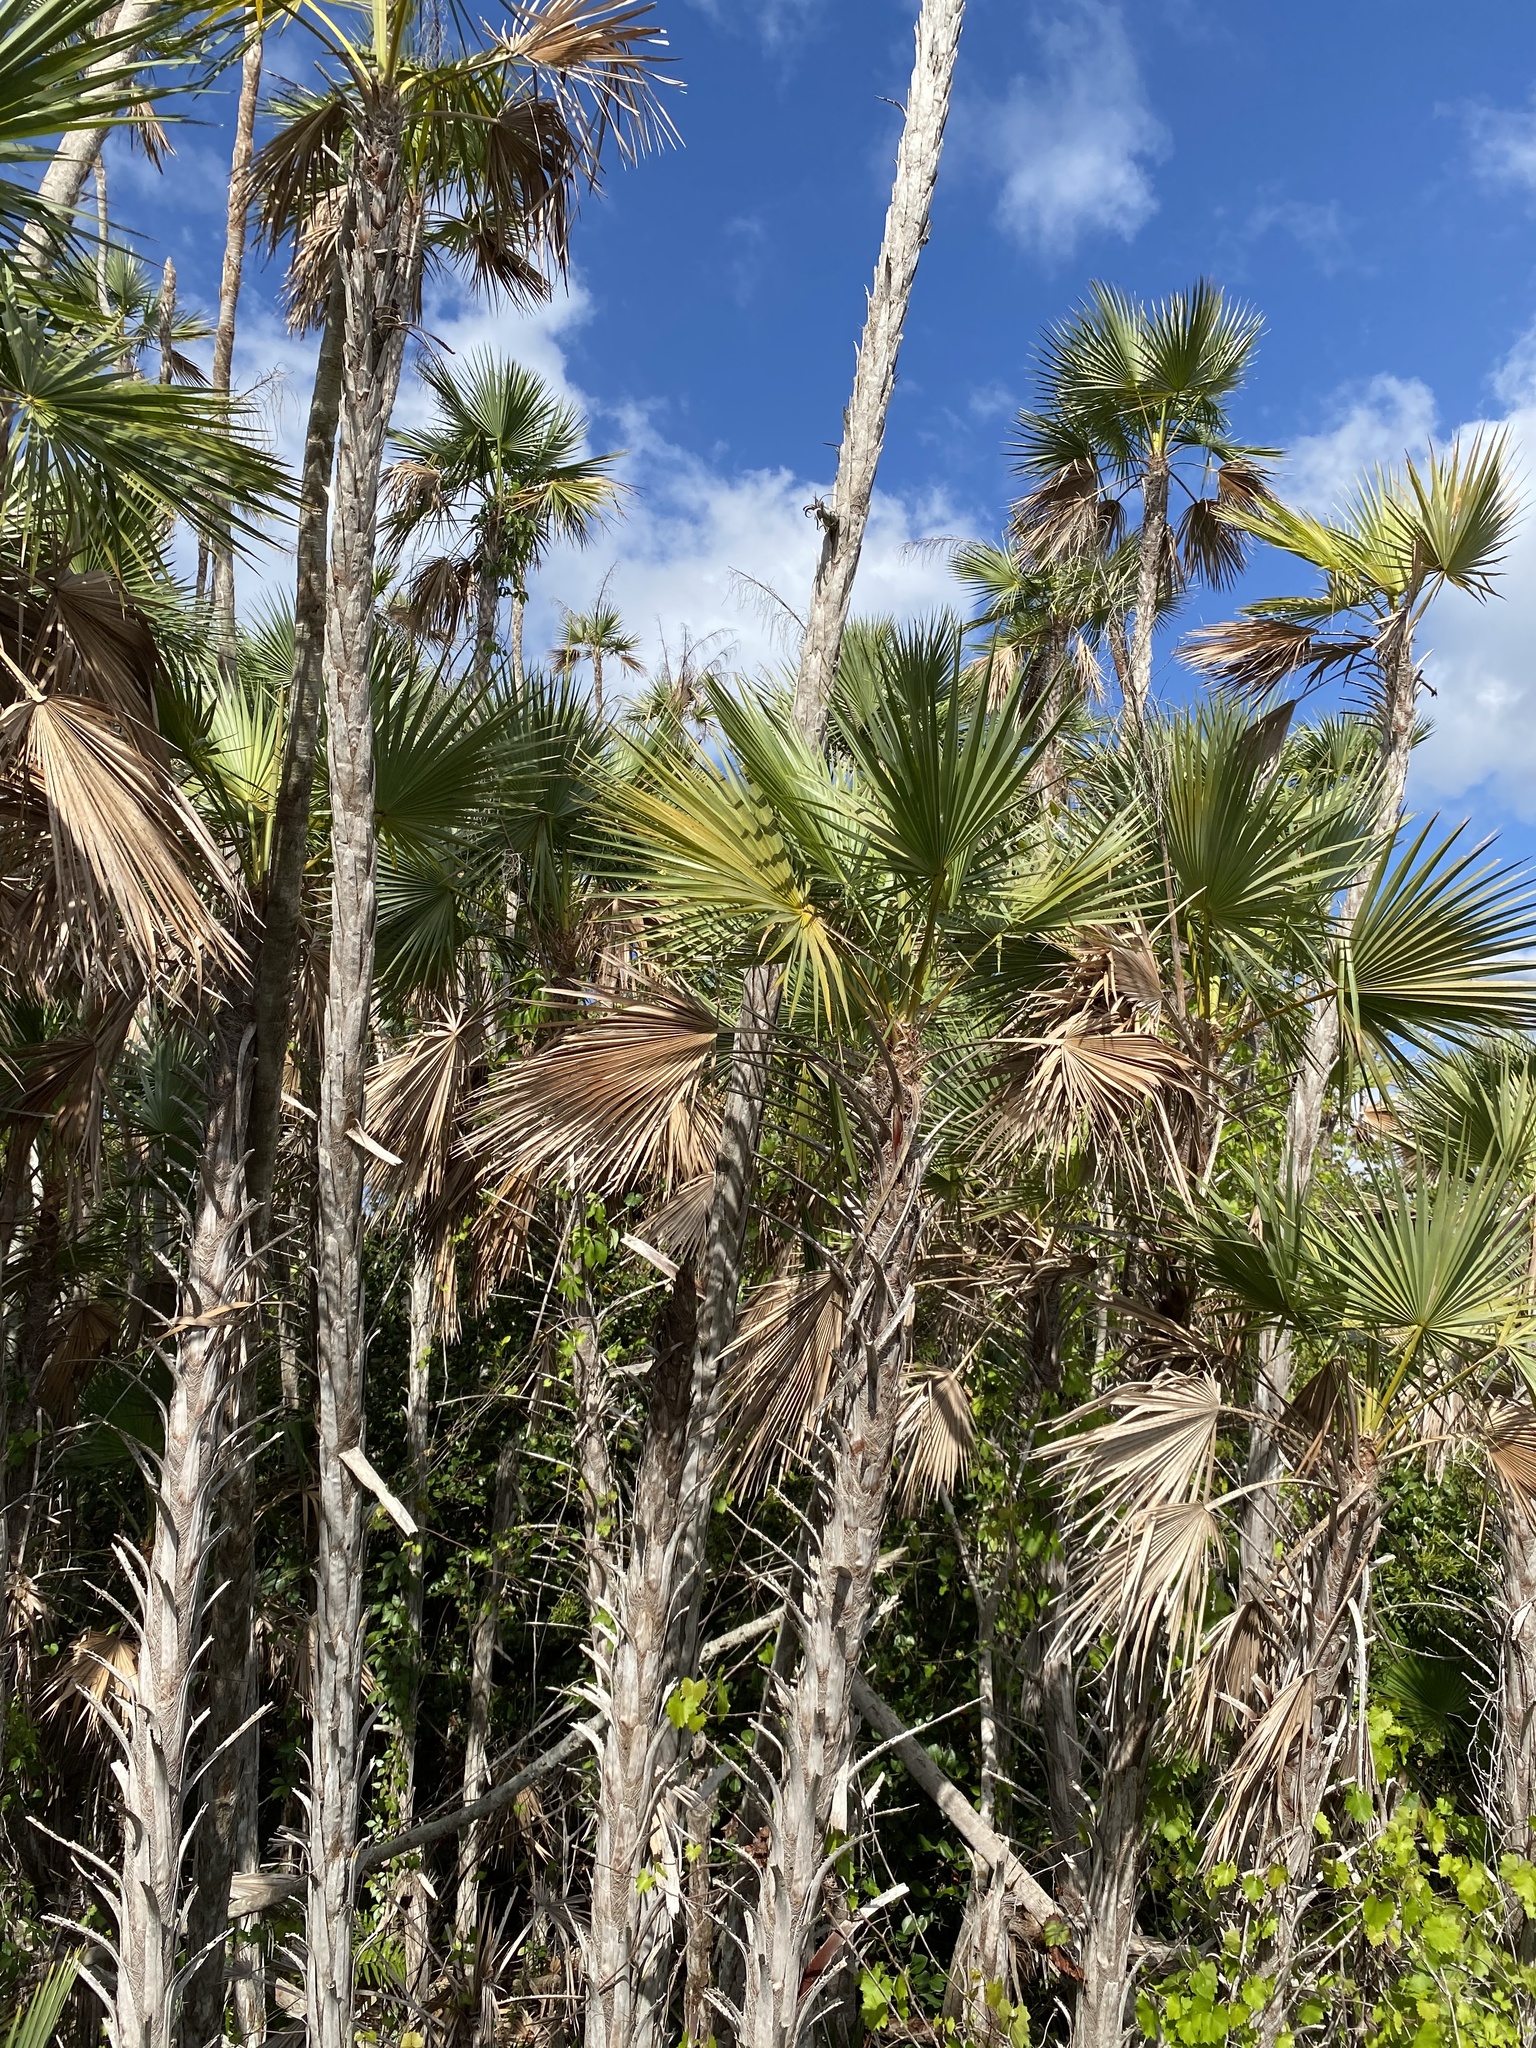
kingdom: Plantae
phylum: Tracheophyta
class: Liliopsida
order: Arecales
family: Arecaceae
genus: Acoelorraphe
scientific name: Acoelorraphe wrightii
